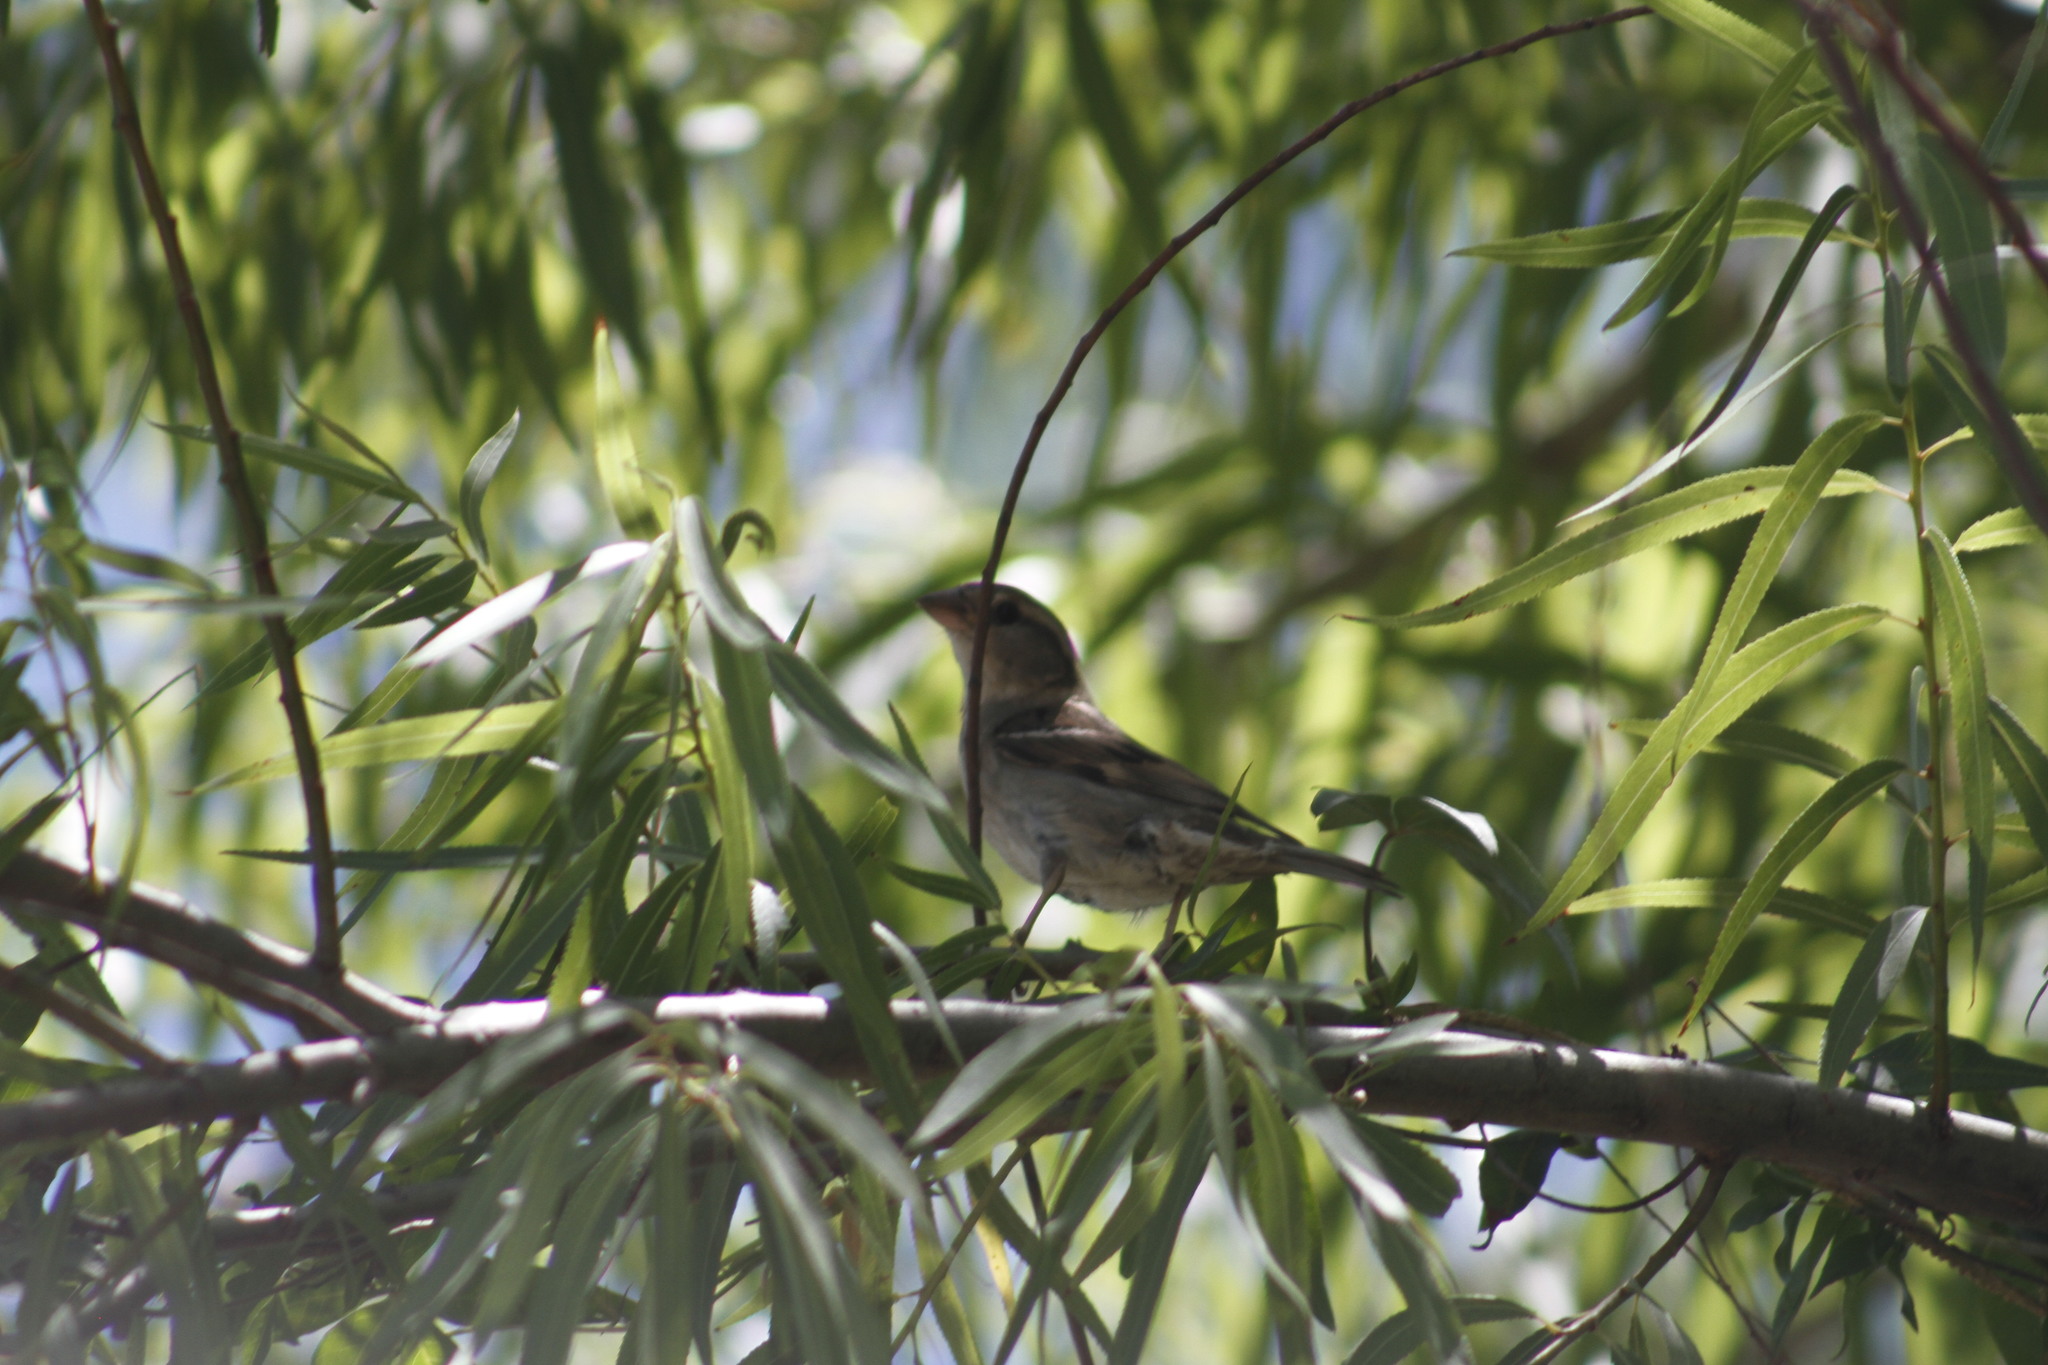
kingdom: Animalia
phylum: Chordata
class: Aves
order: Passeriformes
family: Passeridae
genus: Passer
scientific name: Passer domesticus
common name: House sparrow
